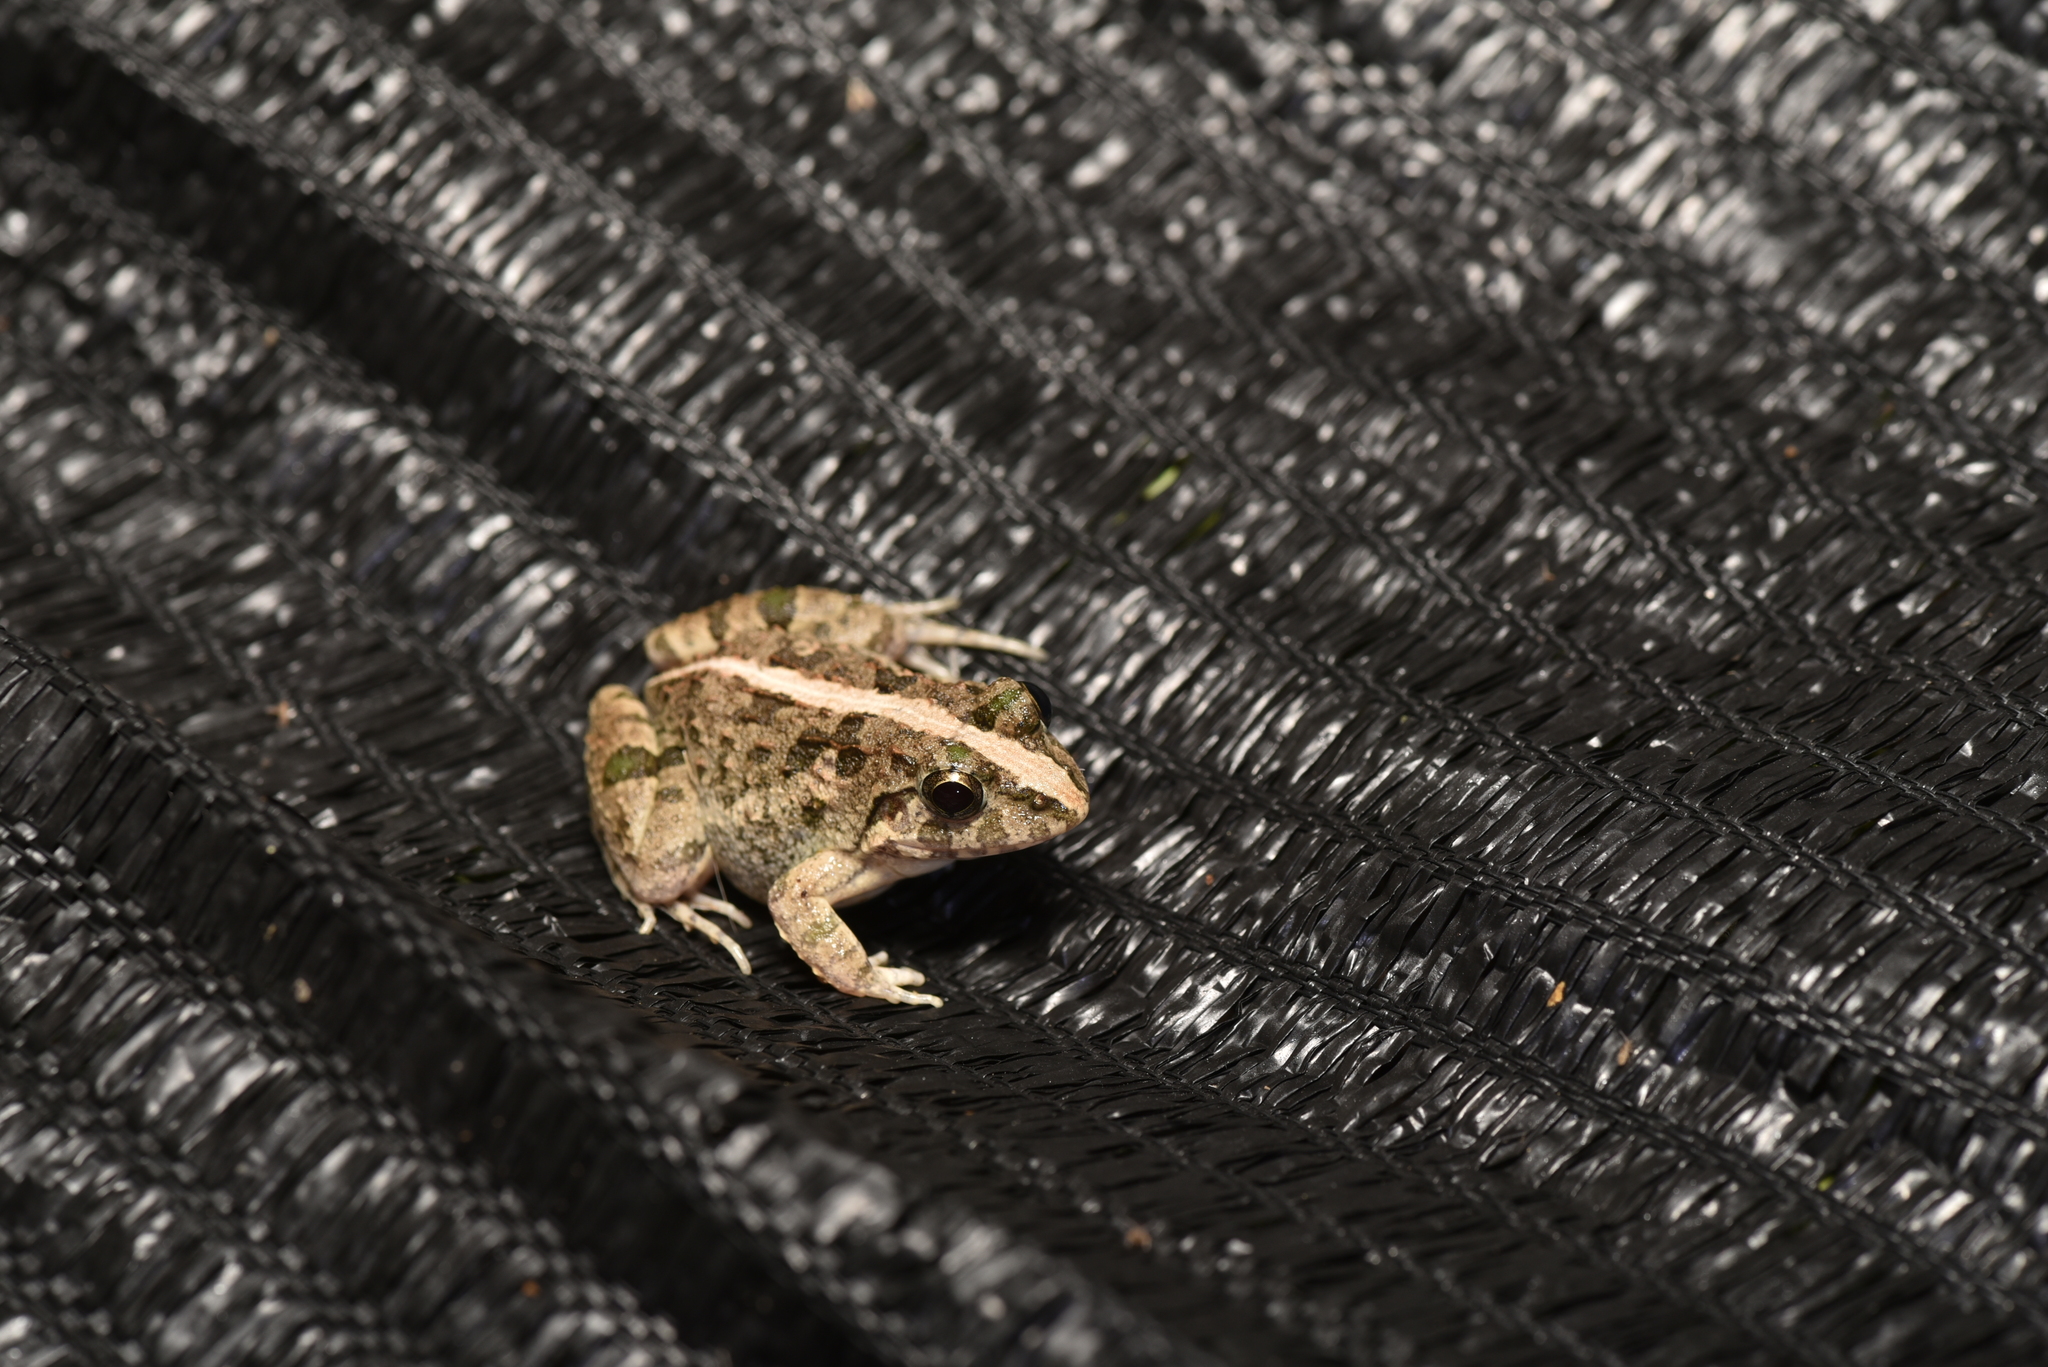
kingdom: Animalia
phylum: Chordata
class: Amphibia
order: Anura
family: Dicroglossidae
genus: Fejervarya
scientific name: Fejervarya limnocharis
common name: Asian grass frog/common pond frog/field frog/grass frog/indian rice frog
